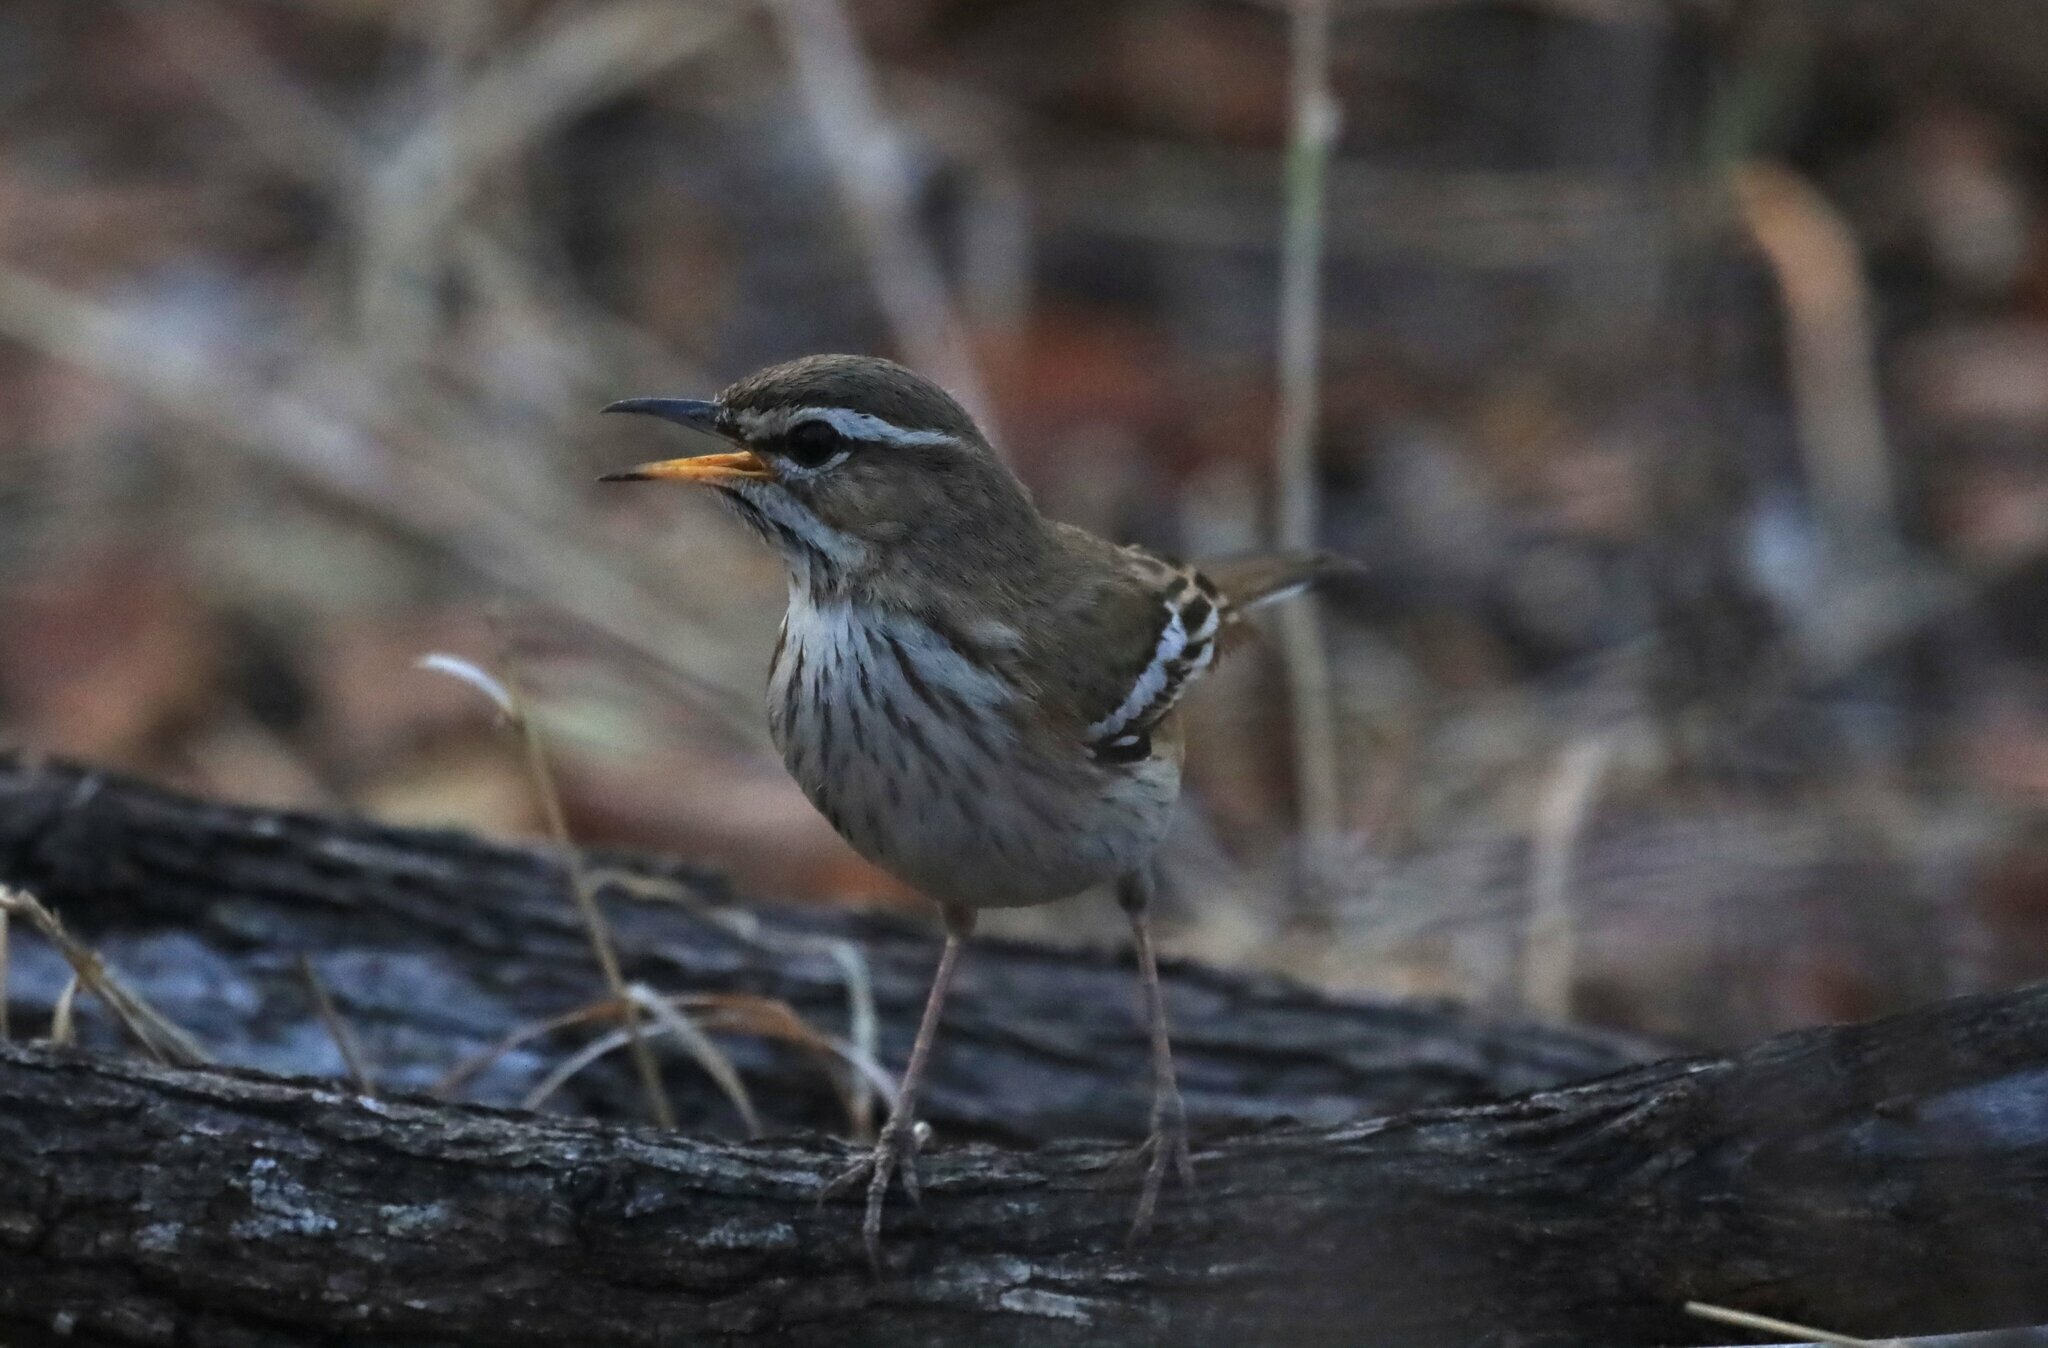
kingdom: Animalia
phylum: Chordata
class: Aves
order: Passeriformes
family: Muscicapidae
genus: Erythropygia
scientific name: Erythropygia leucophrys
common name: White-browed scrub robin
